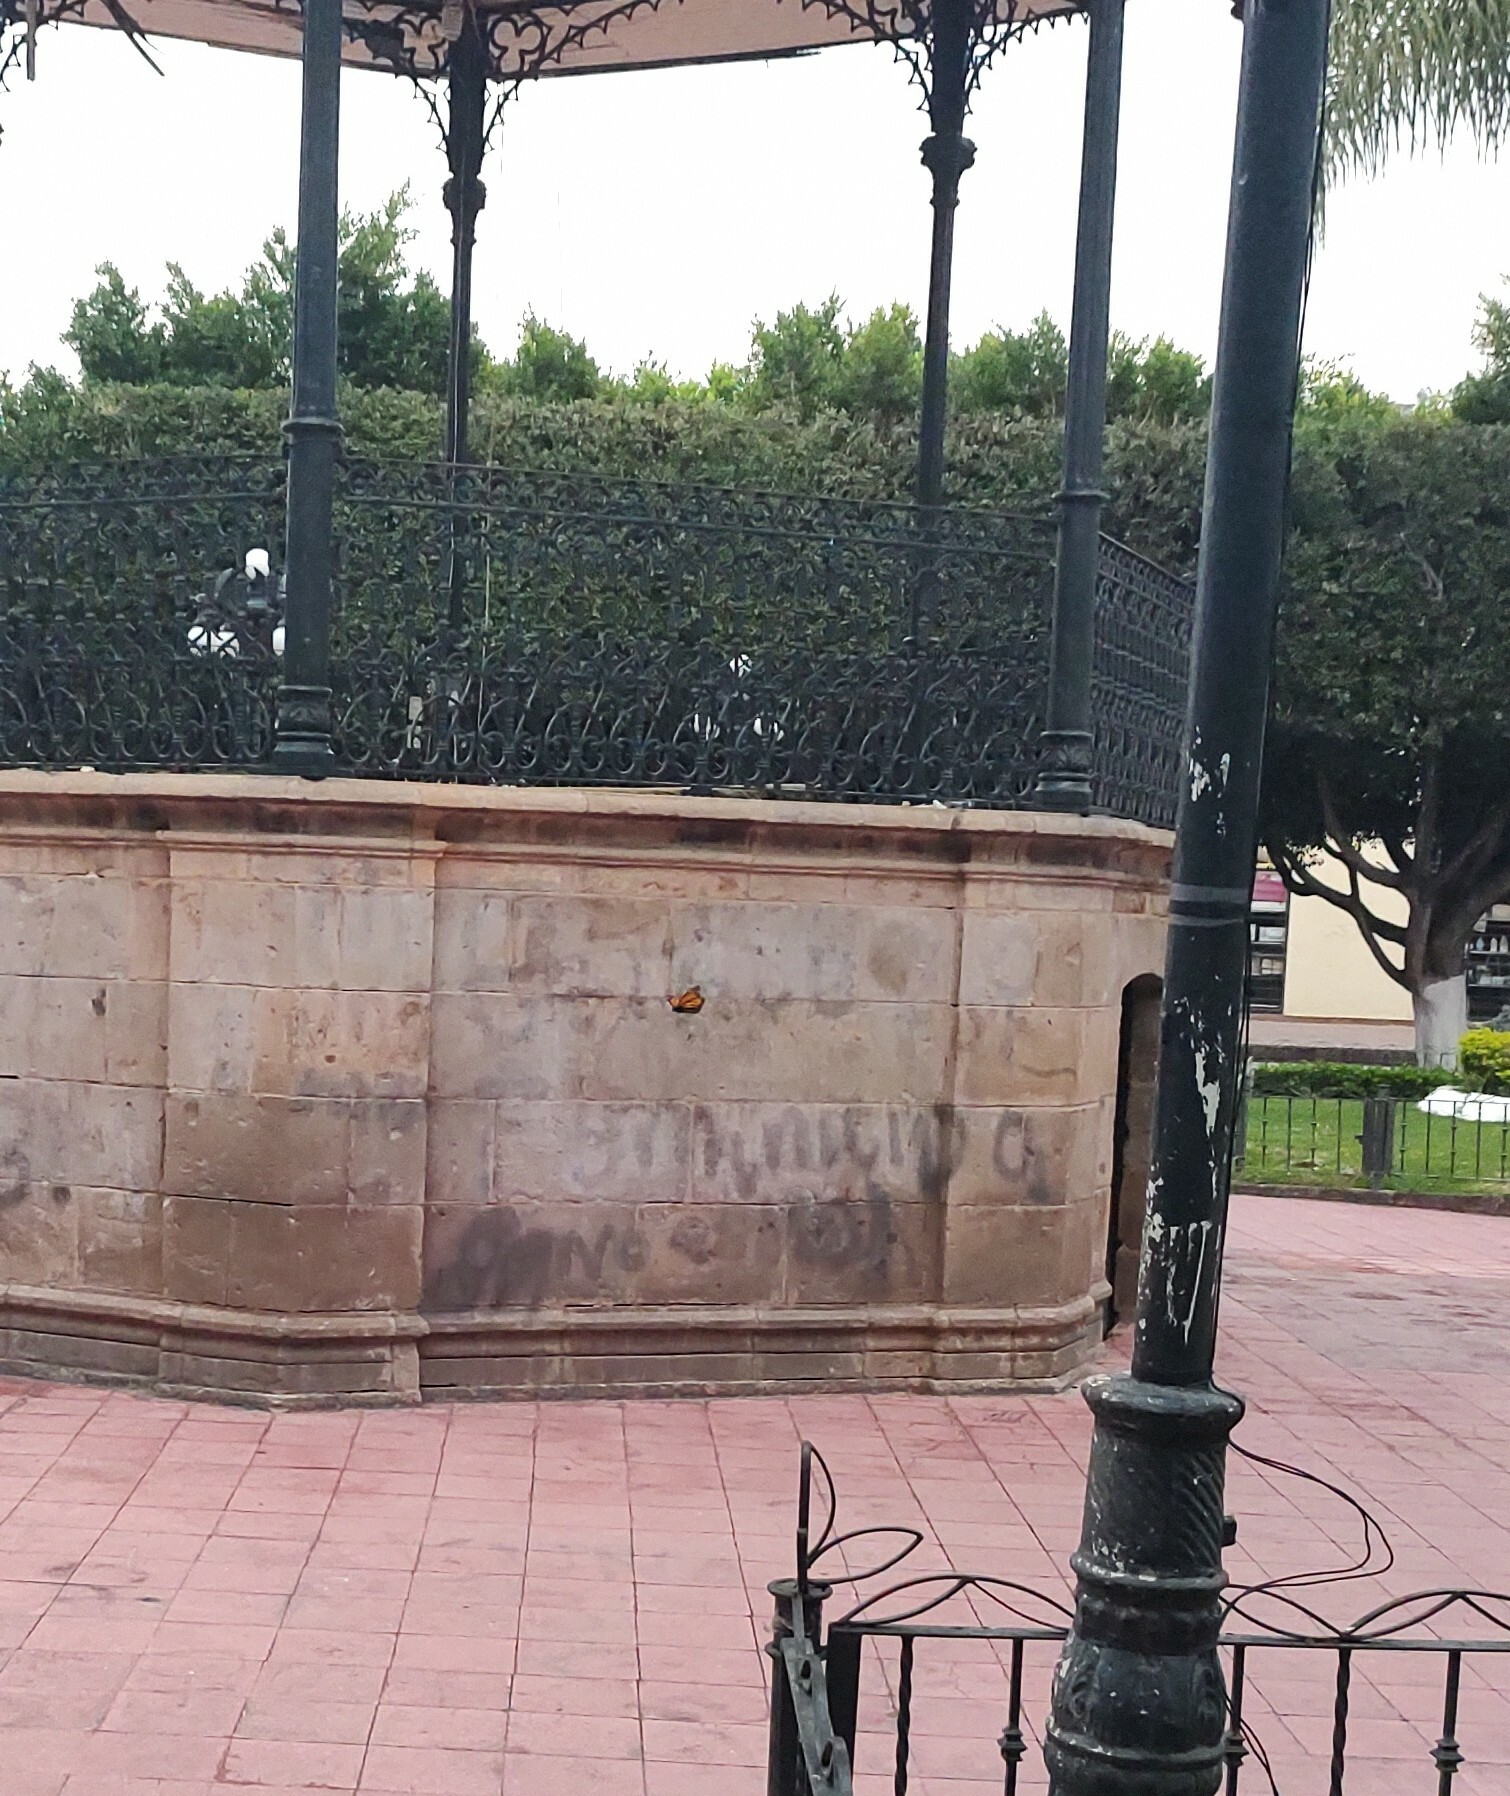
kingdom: Animalia
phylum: Arthropoda
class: Insecta
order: Lepidoptera
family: Nymphalidae
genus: Danaus
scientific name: Danaus plexippus
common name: Monarch
